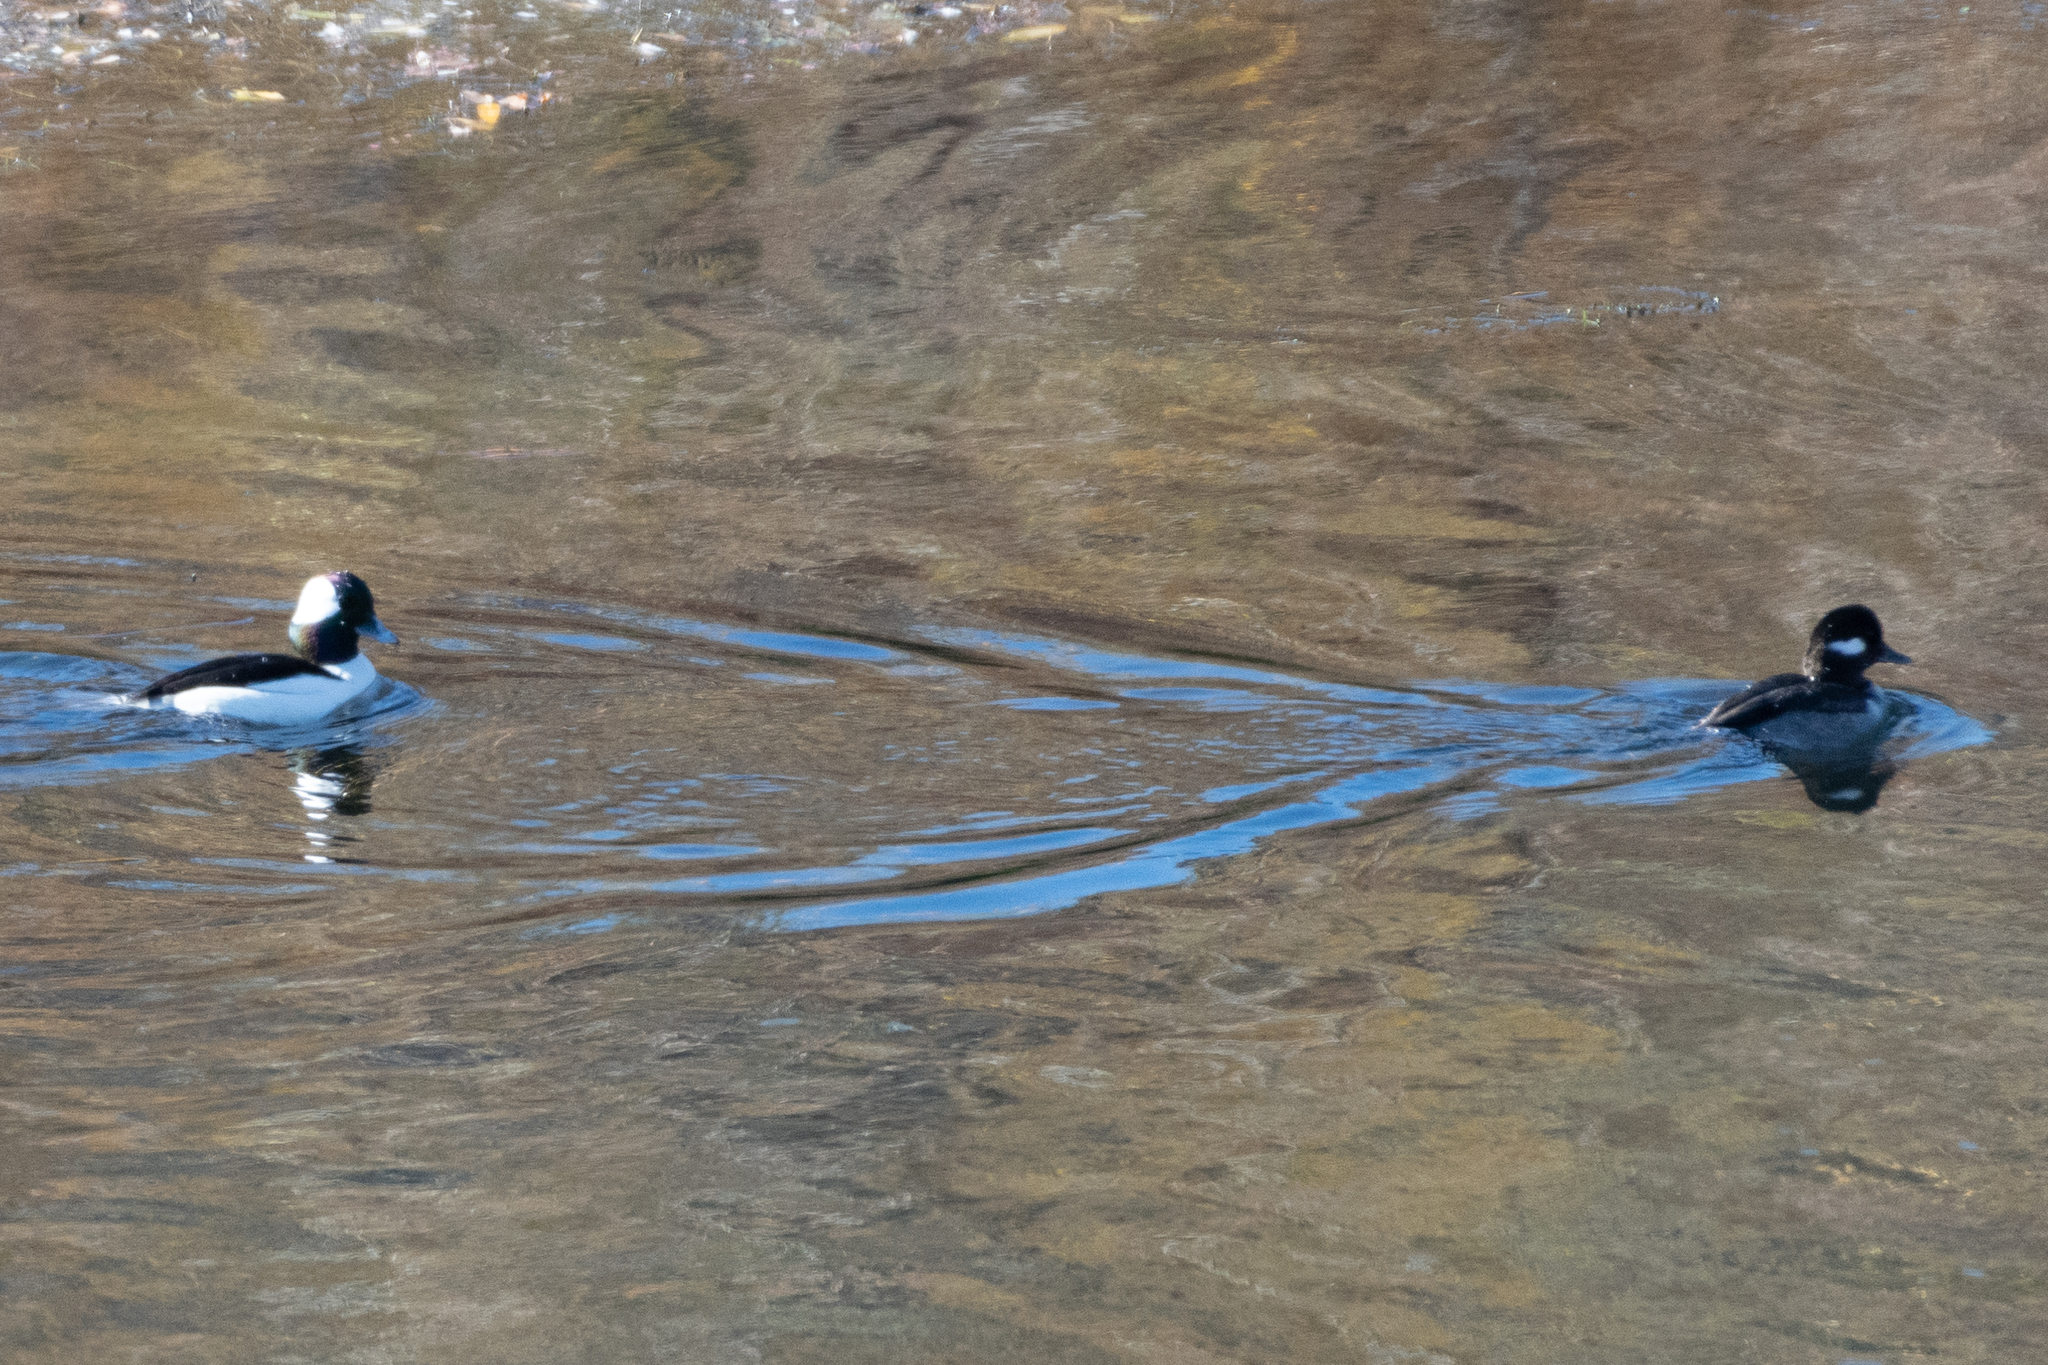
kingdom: Animalia
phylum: Chordata
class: Aves
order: Anseriformes
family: Anatidae
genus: Bucephala
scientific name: Bucephala albeola
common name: Bufflehead
